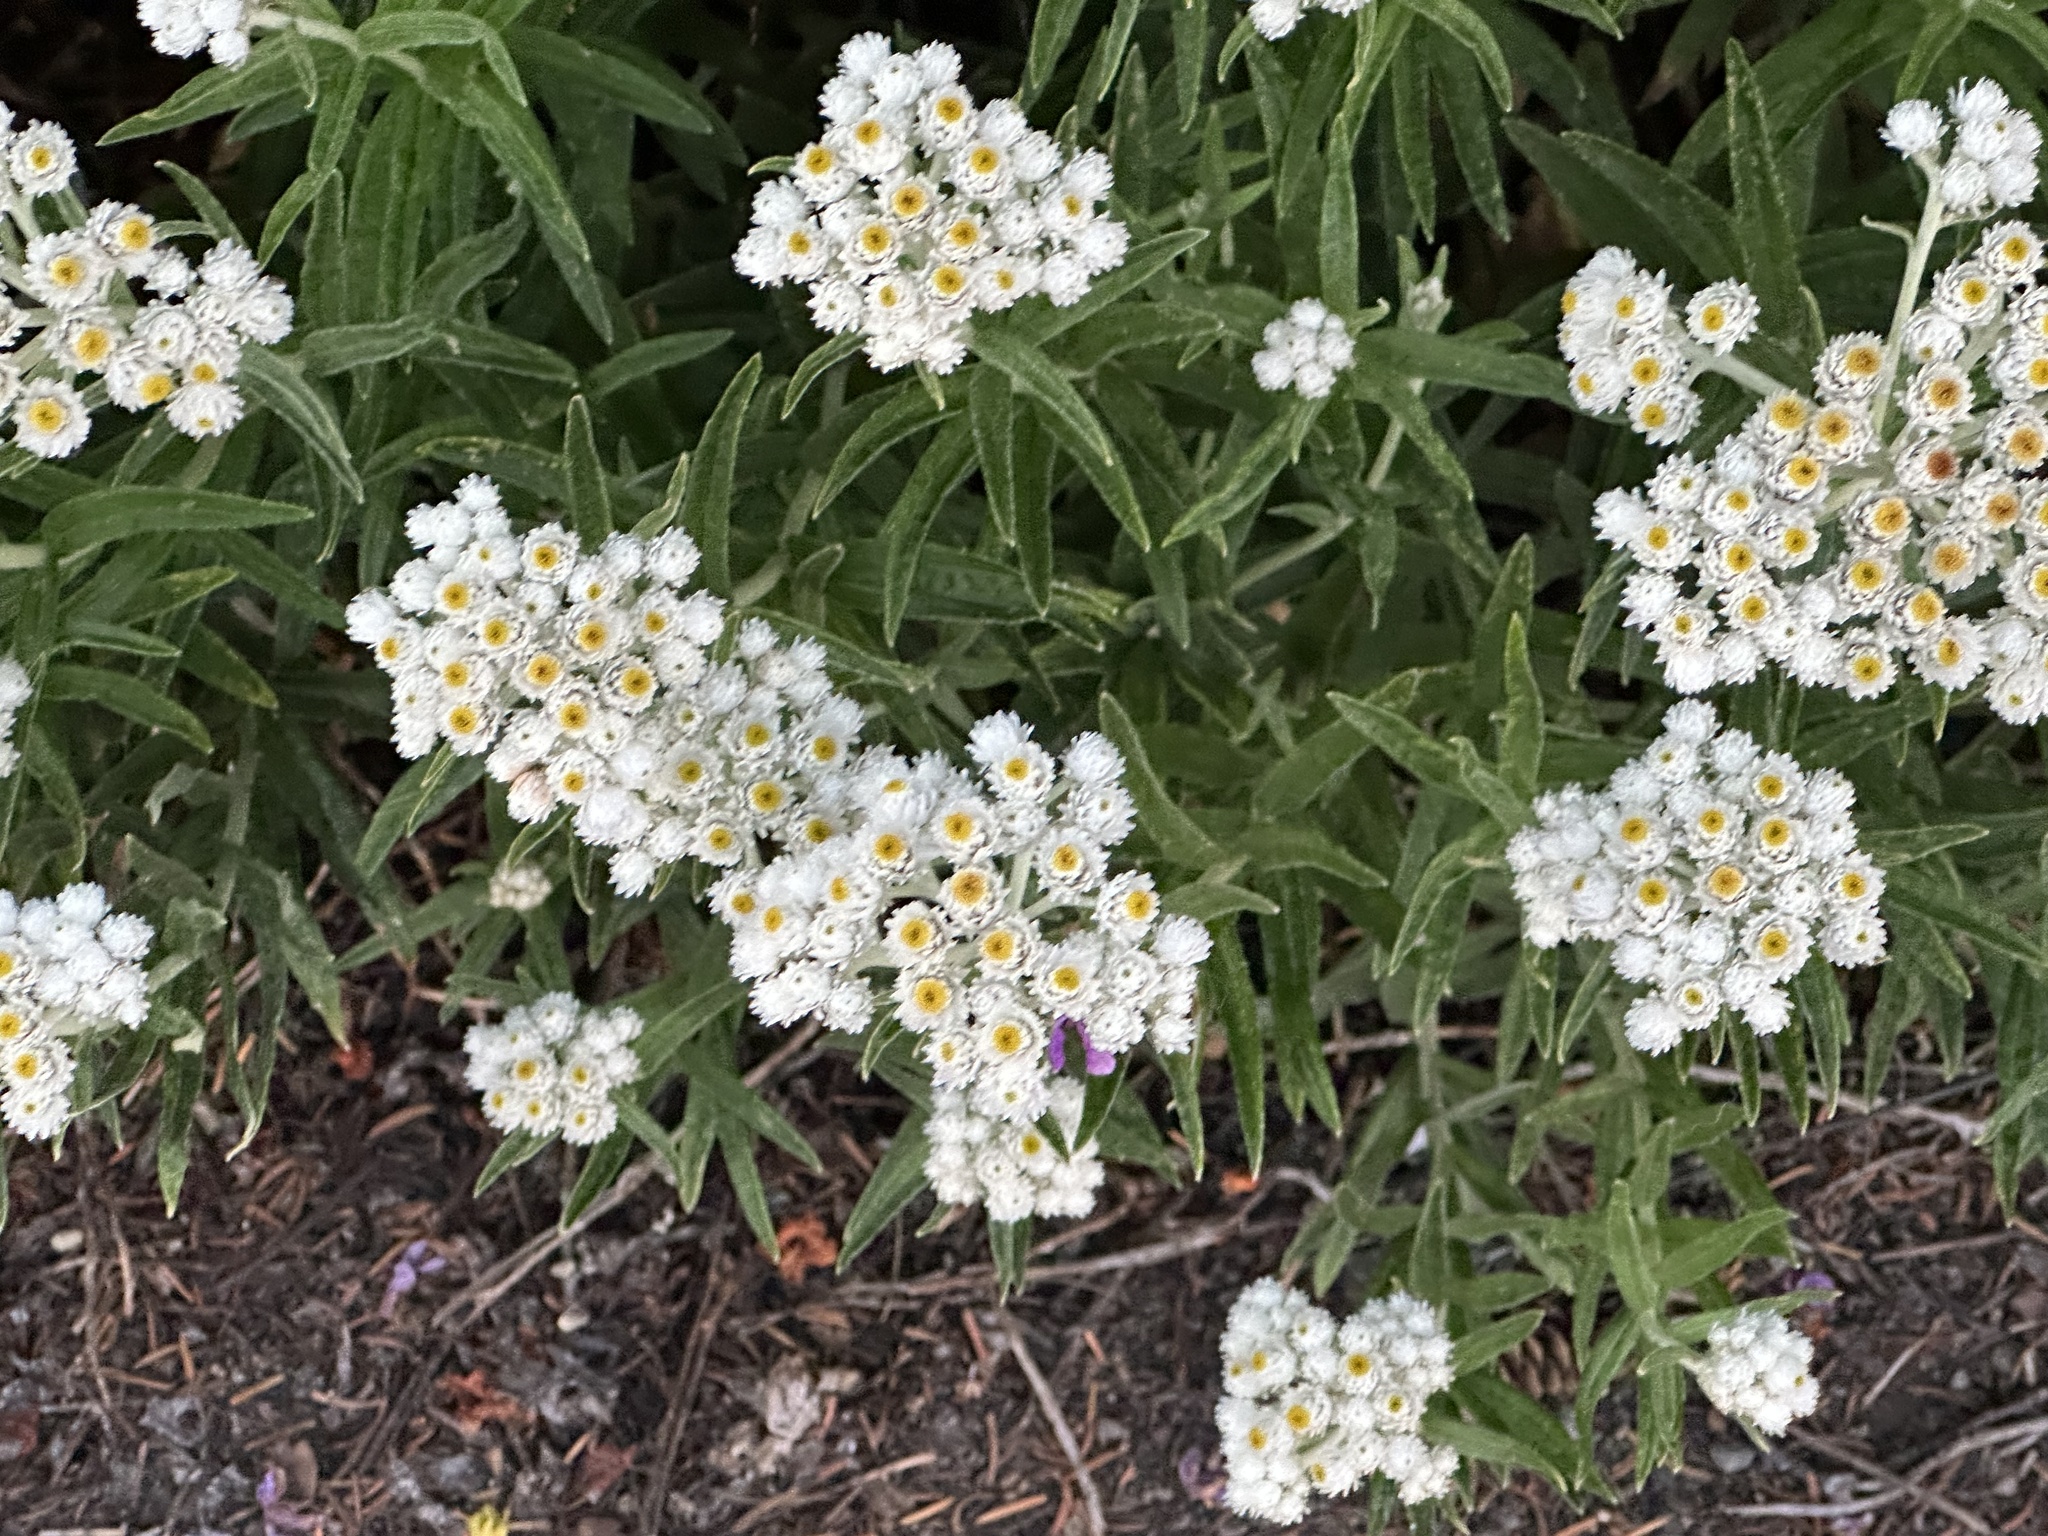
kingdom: Plantae
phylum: Tracheophyta
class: Magnoliopsida
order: Asterales
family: Asteraceae
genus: Anaphalis
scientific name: Anaphalis margaritacea
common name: Pearly everlasting
